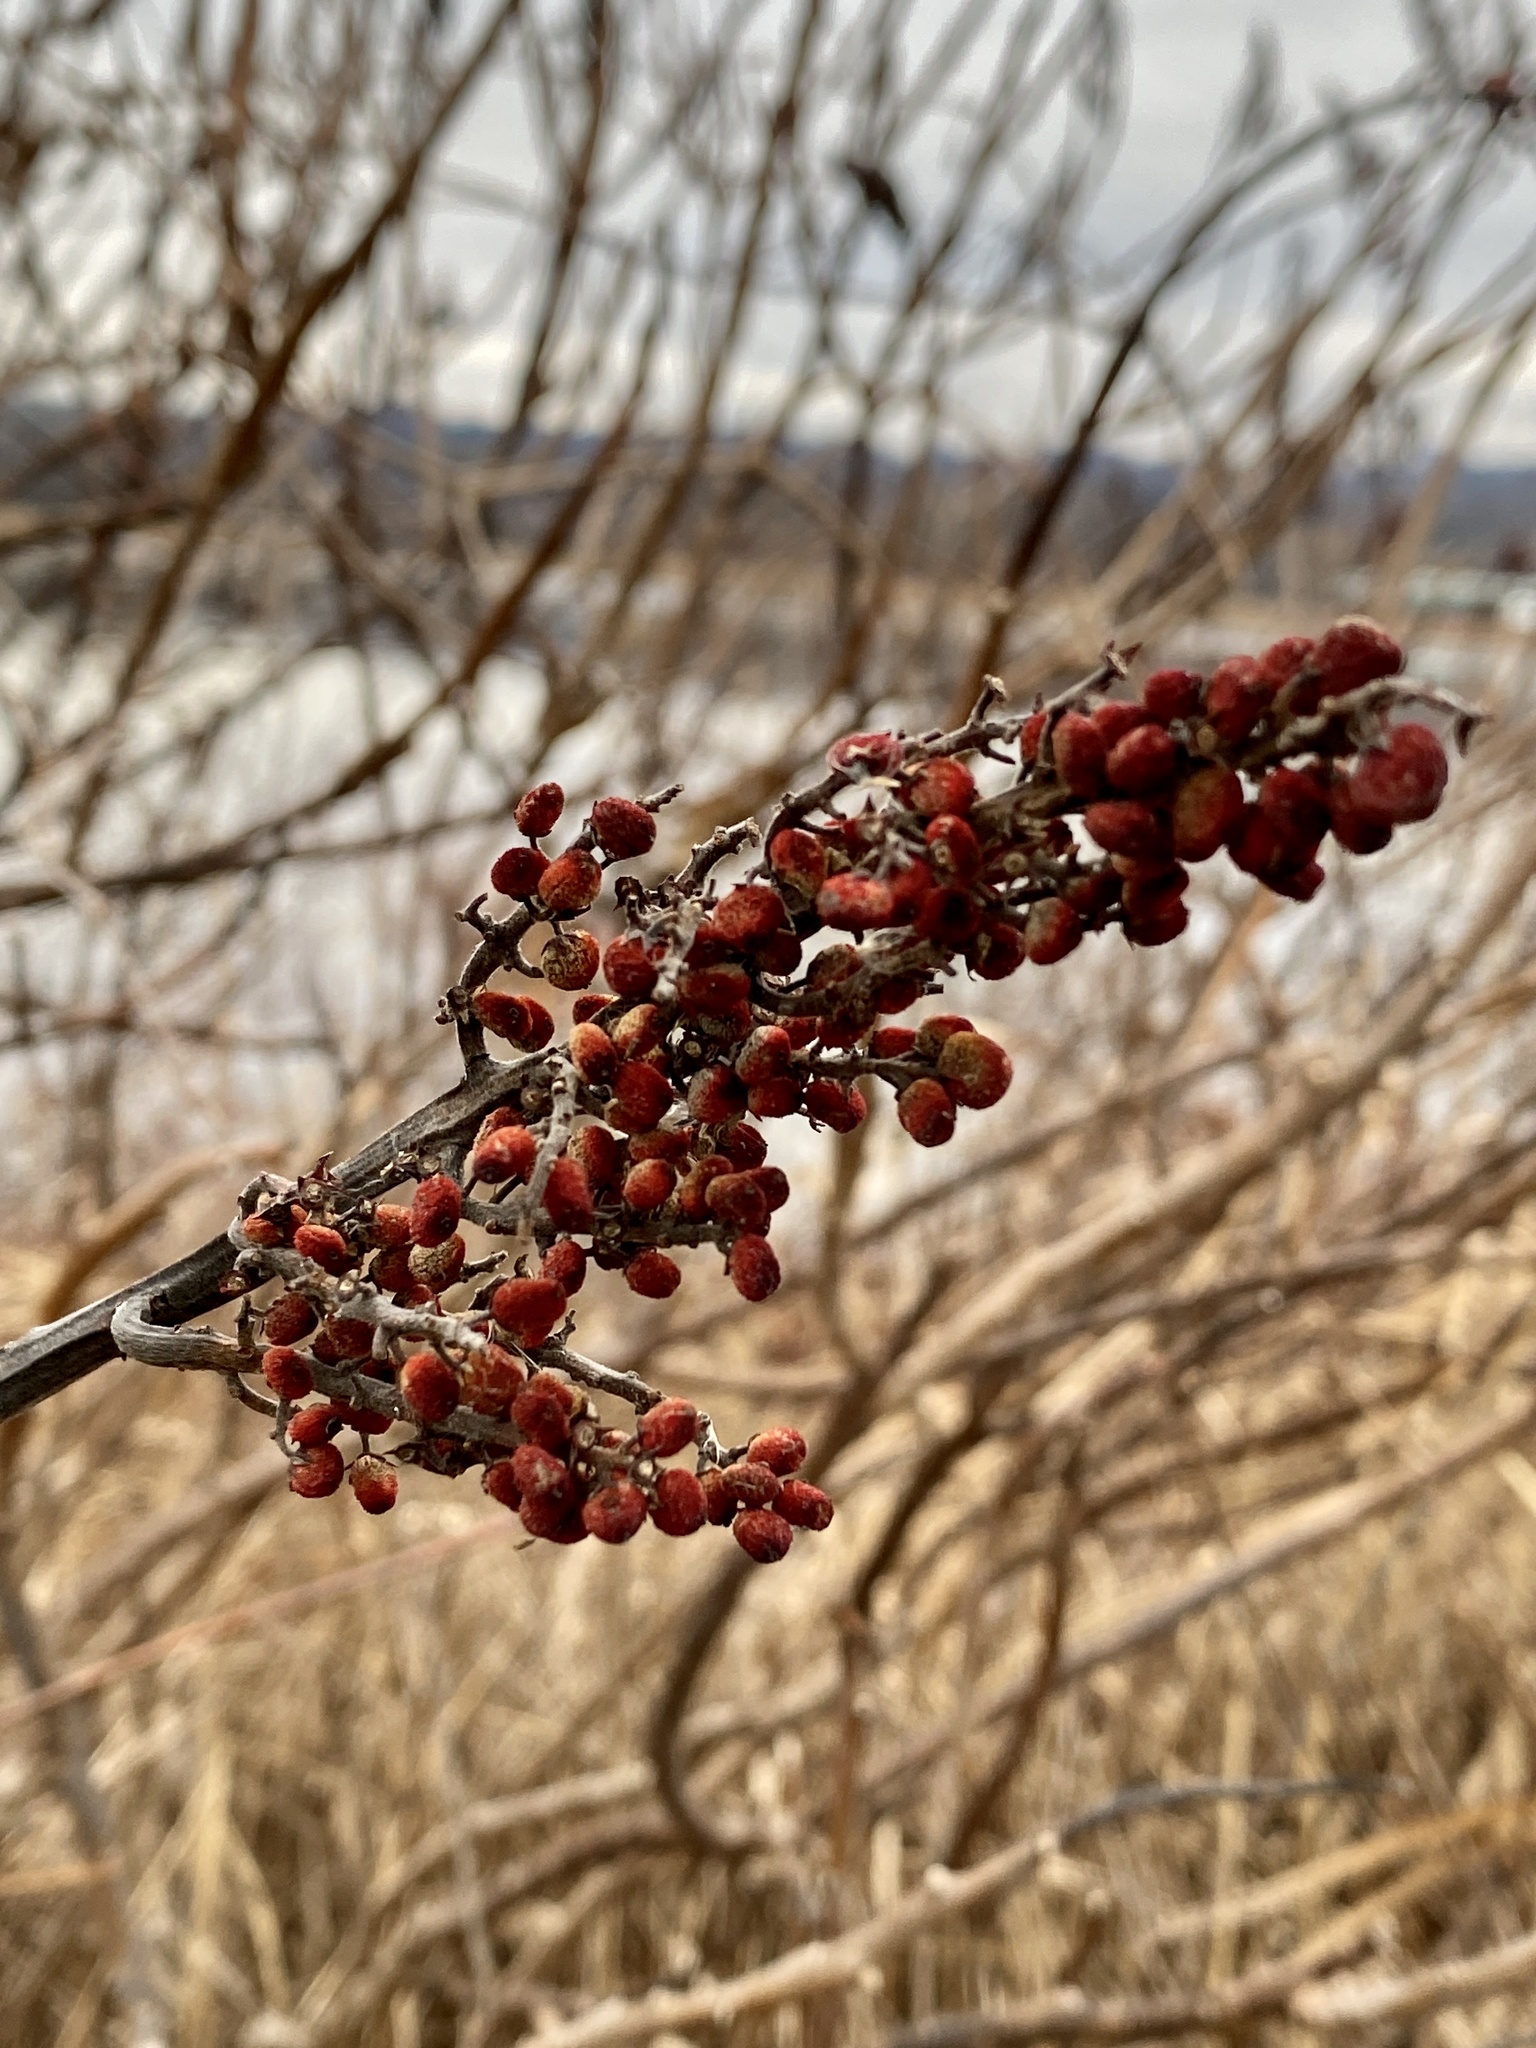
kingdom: Plantae
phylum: Tracheophyta
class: Magnoliopsida
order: Sapindales
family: Anacardiaceae
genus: Rhus
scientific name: Rhus glabra
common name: Scarlet sumac
